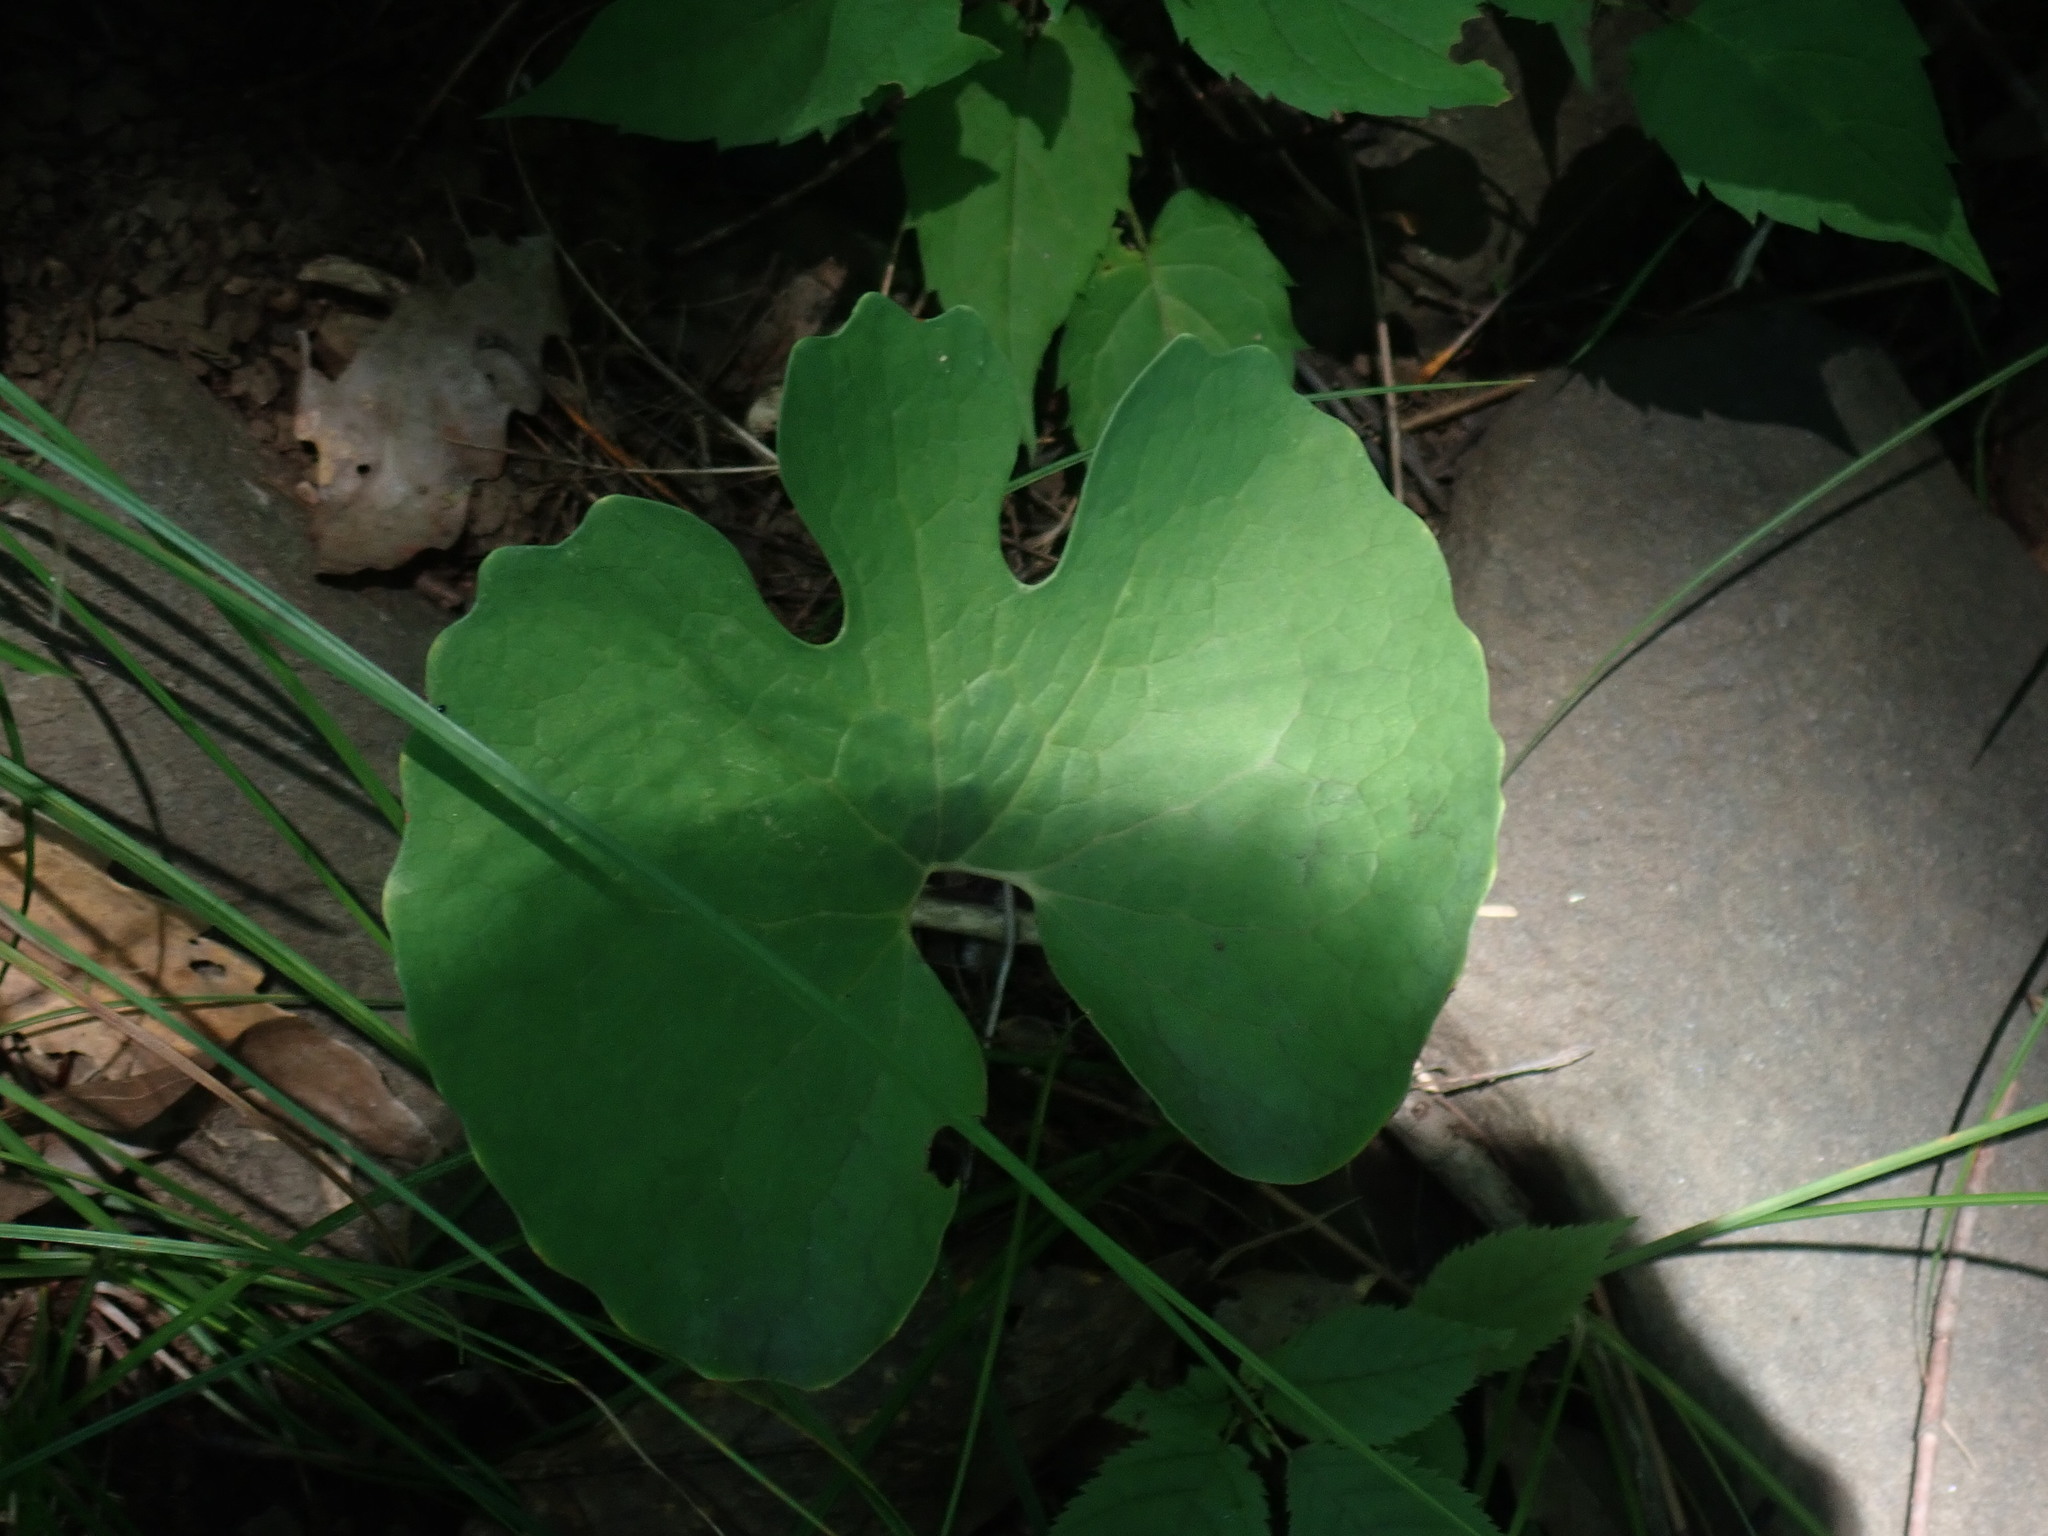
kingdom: Plantae
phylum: Tracheophyta
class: Magnoliopsida
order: Ranunculales
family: Papaveraceae
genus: Sanguinaria
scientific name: Sanguinaria canadensis
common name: Bloodroot
